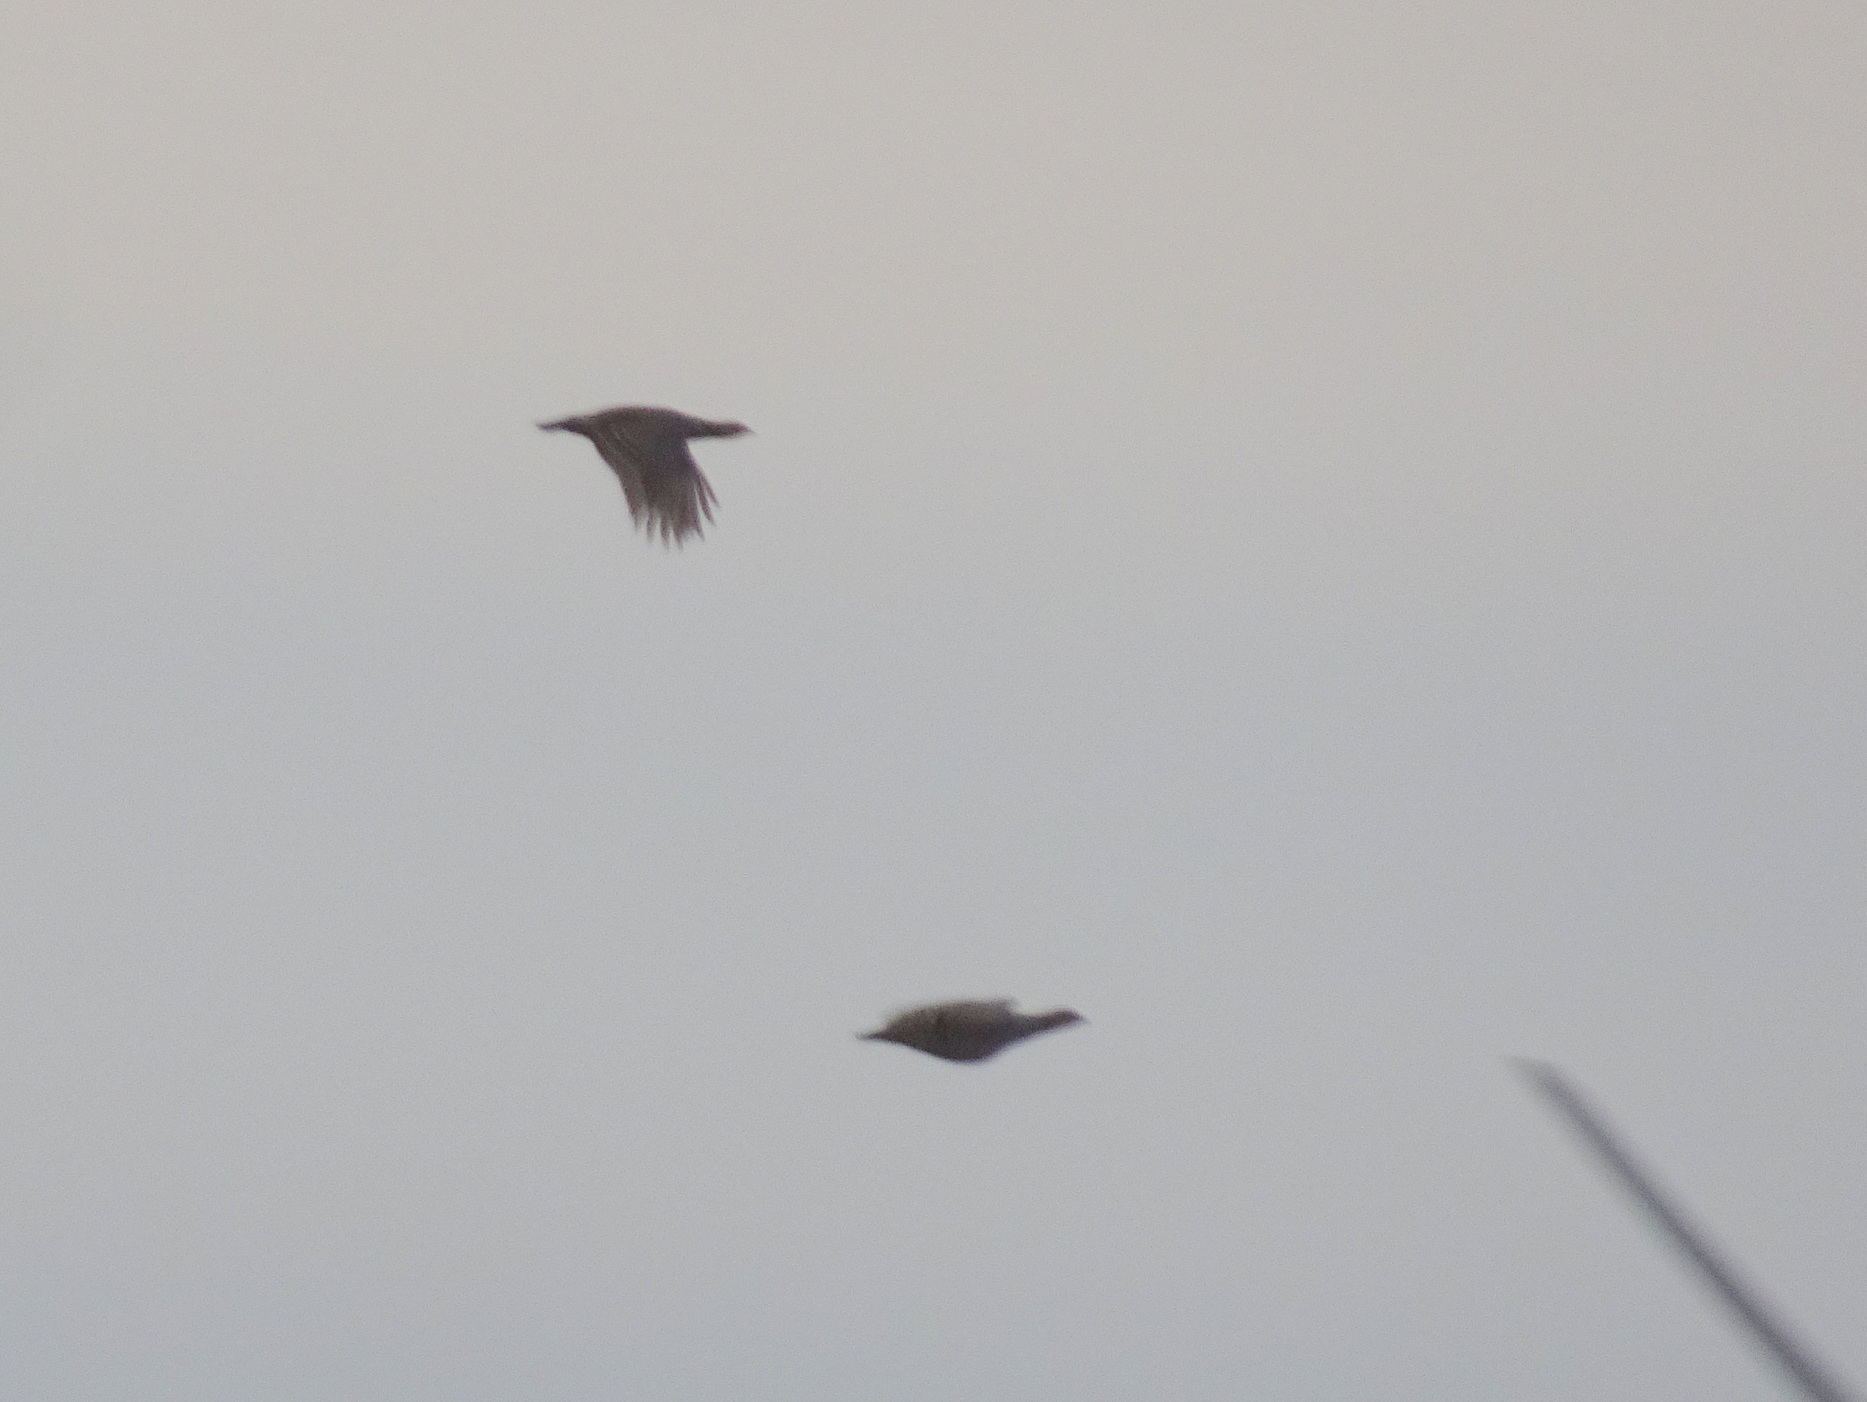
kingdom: Animalia
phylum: Chordata
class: Aves
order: Galliformes
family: Phasianidae
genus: Tympanuchus
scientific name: Tympanuchus cupido
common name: Greater prairie chicken
